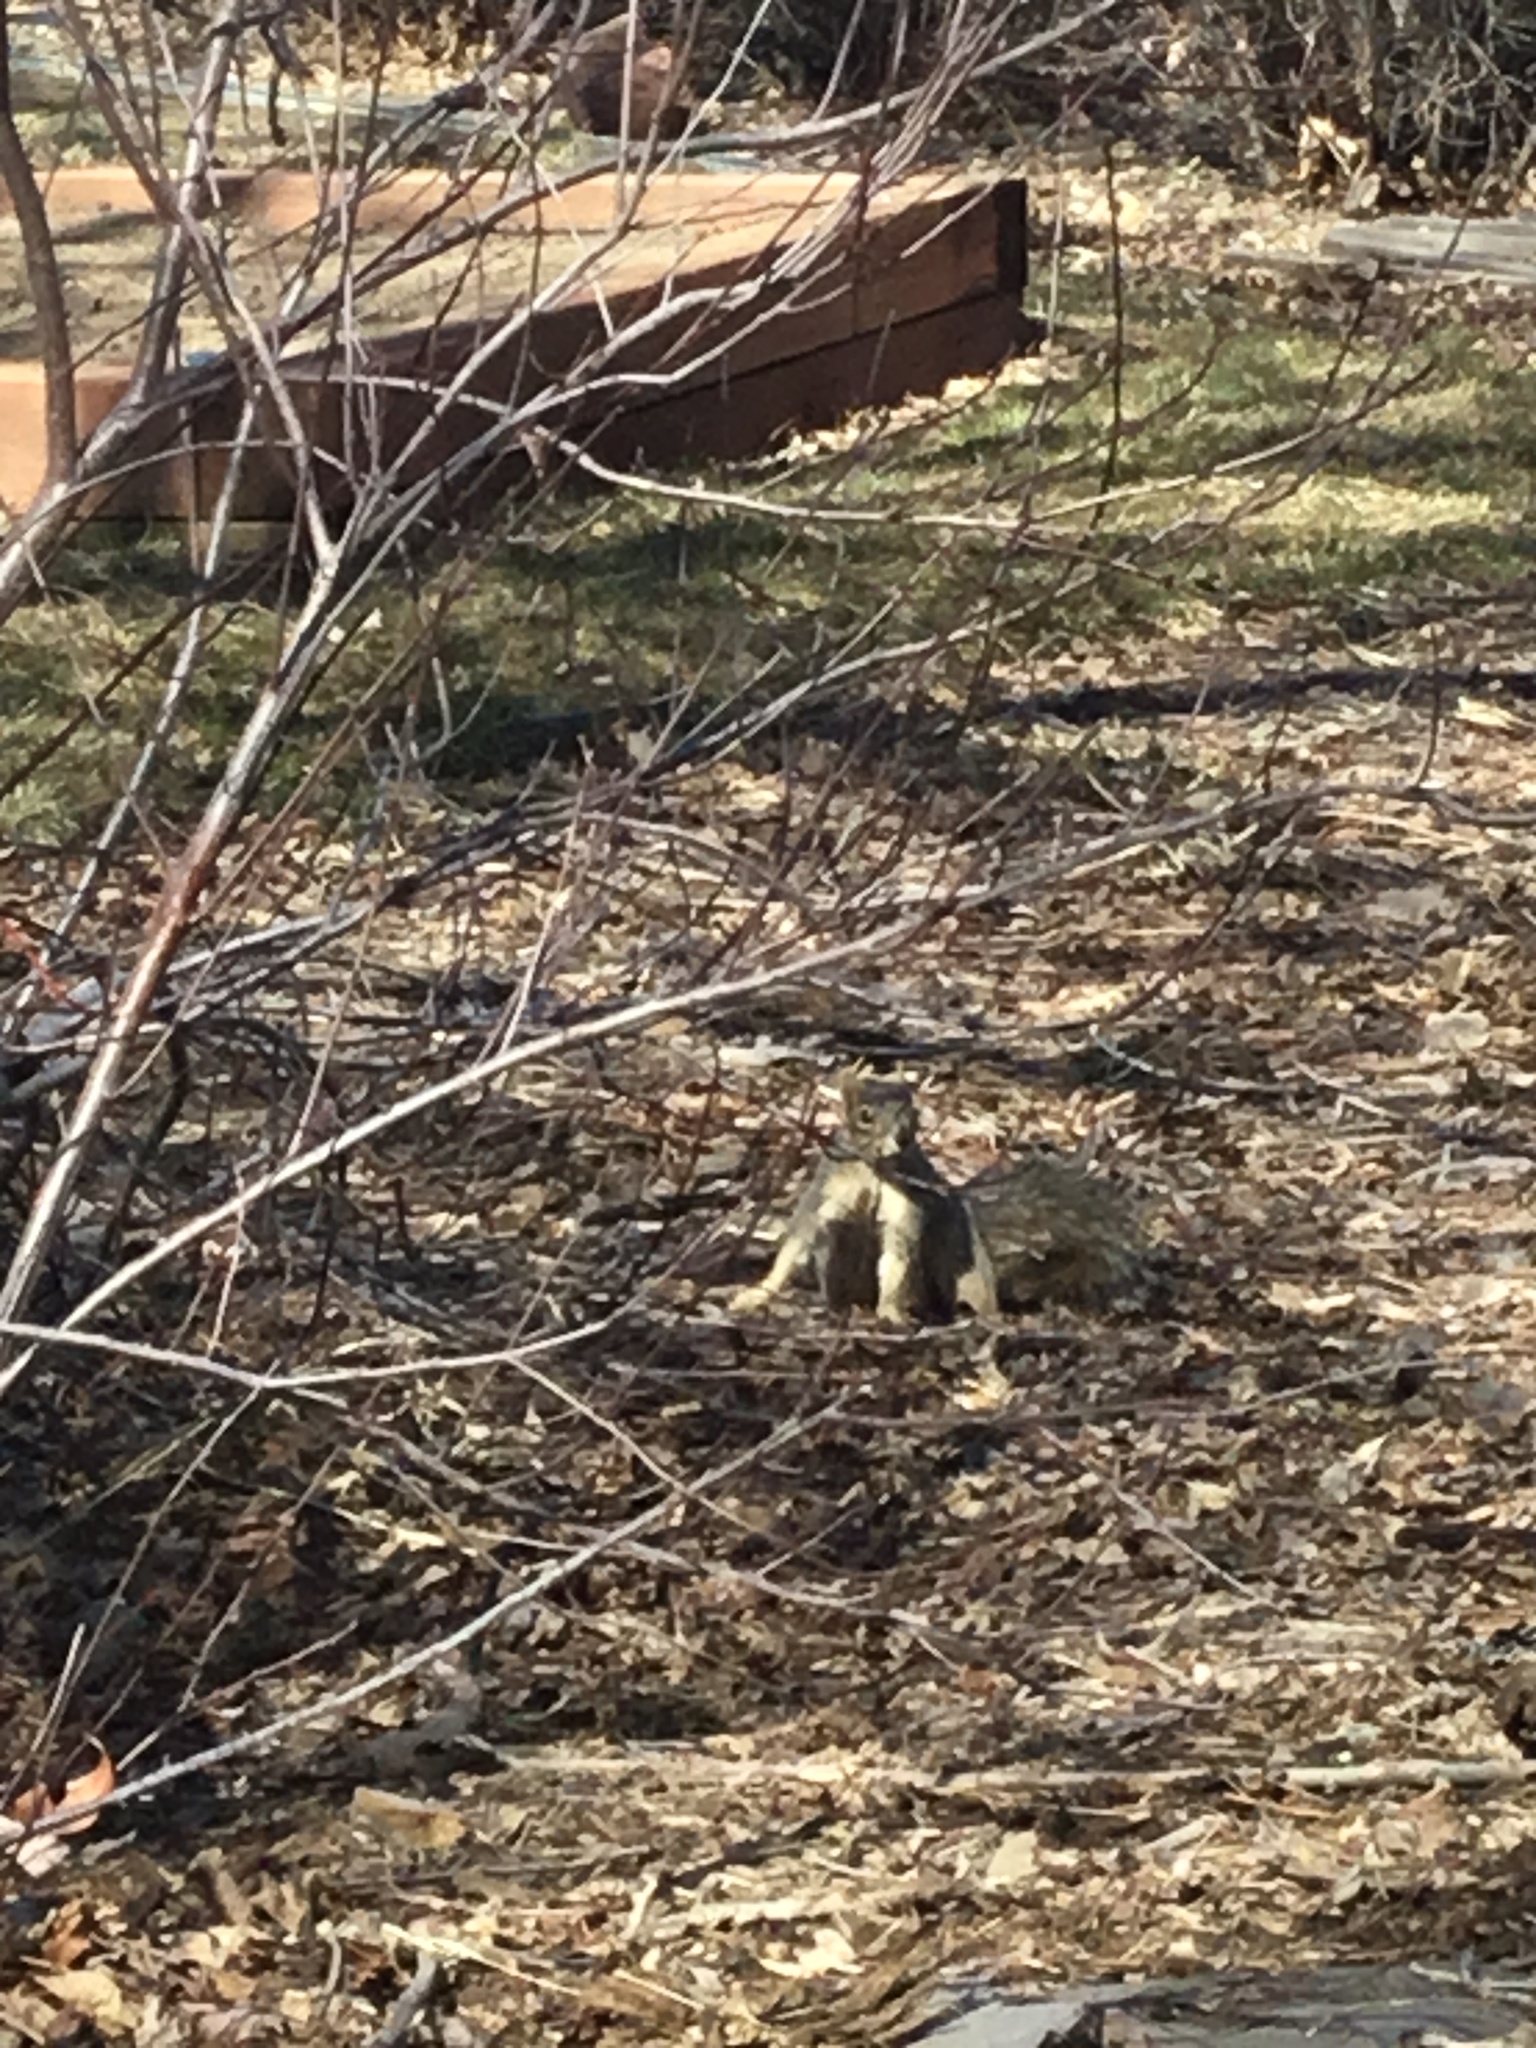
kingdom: Animalia
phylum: Chordata
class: Mammalia
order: Rodentia
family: Sciuridae
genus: Sciurus
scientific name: Sciurus niger
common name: Fox squirrel
